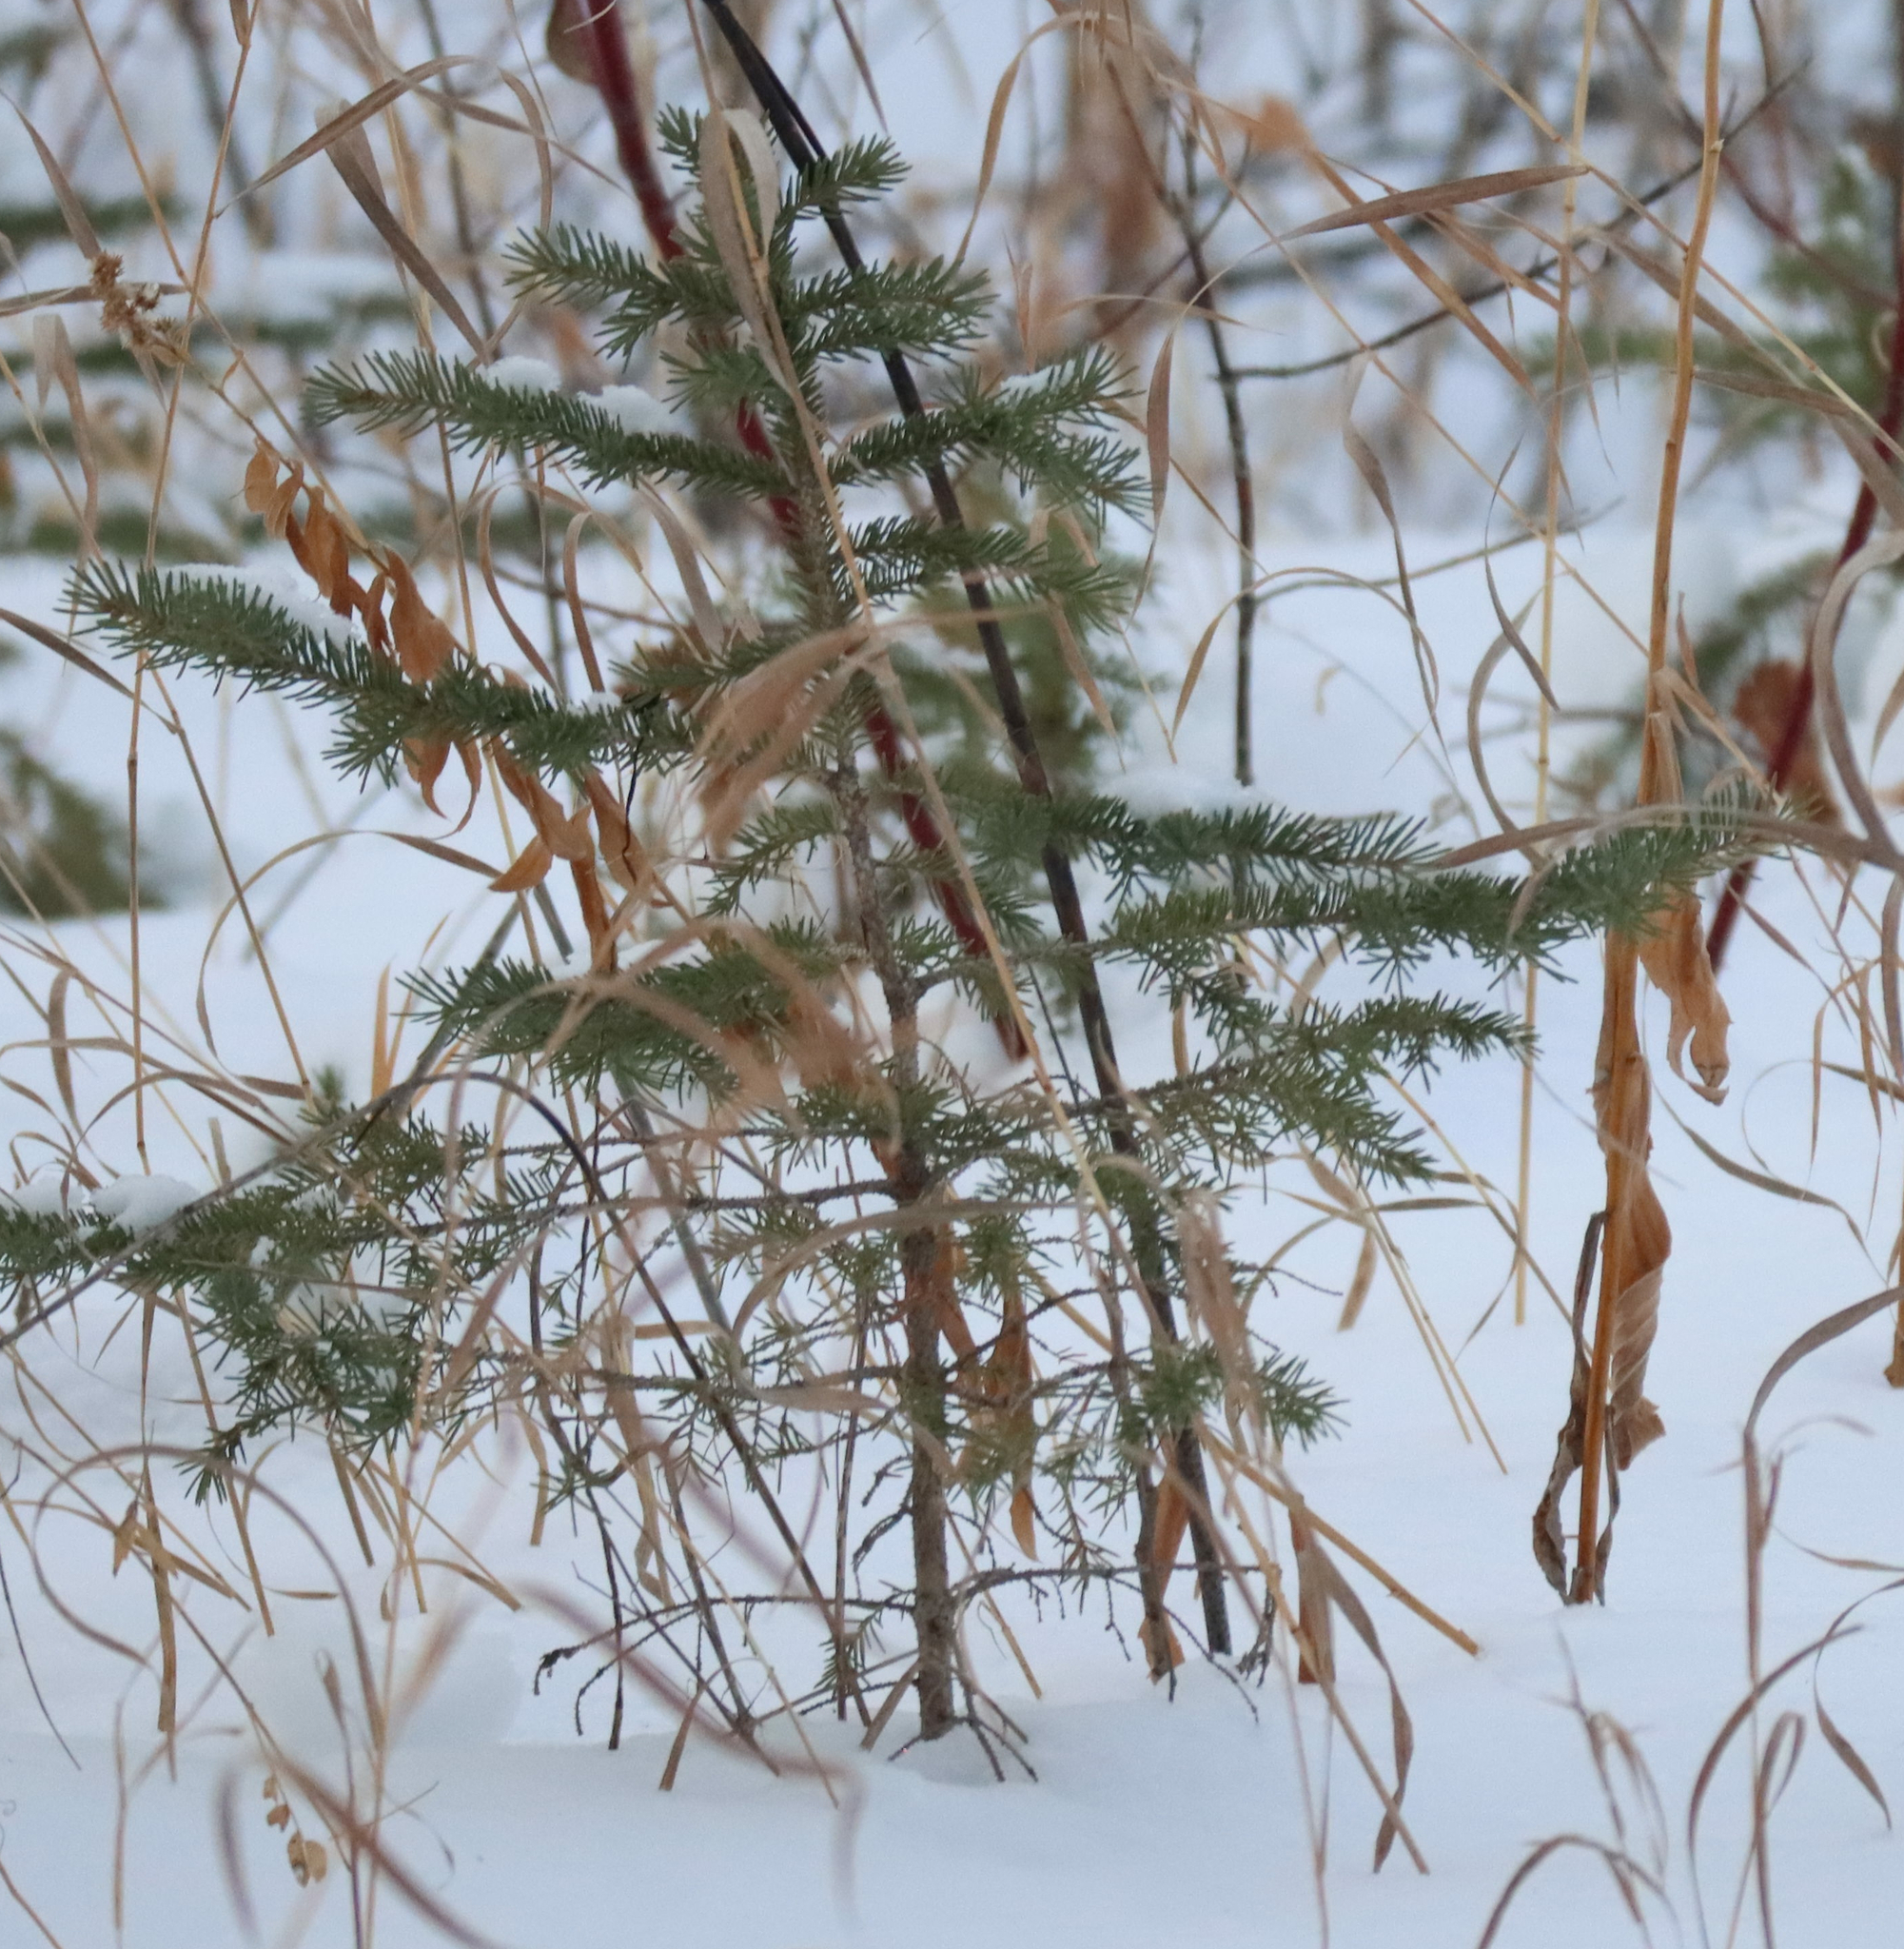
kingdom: Plantae
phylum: Tracheophyta
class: Pinopsida
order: Pinales
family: Pinaceae
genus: Picea
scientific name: Picea glauca
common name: White spruce
